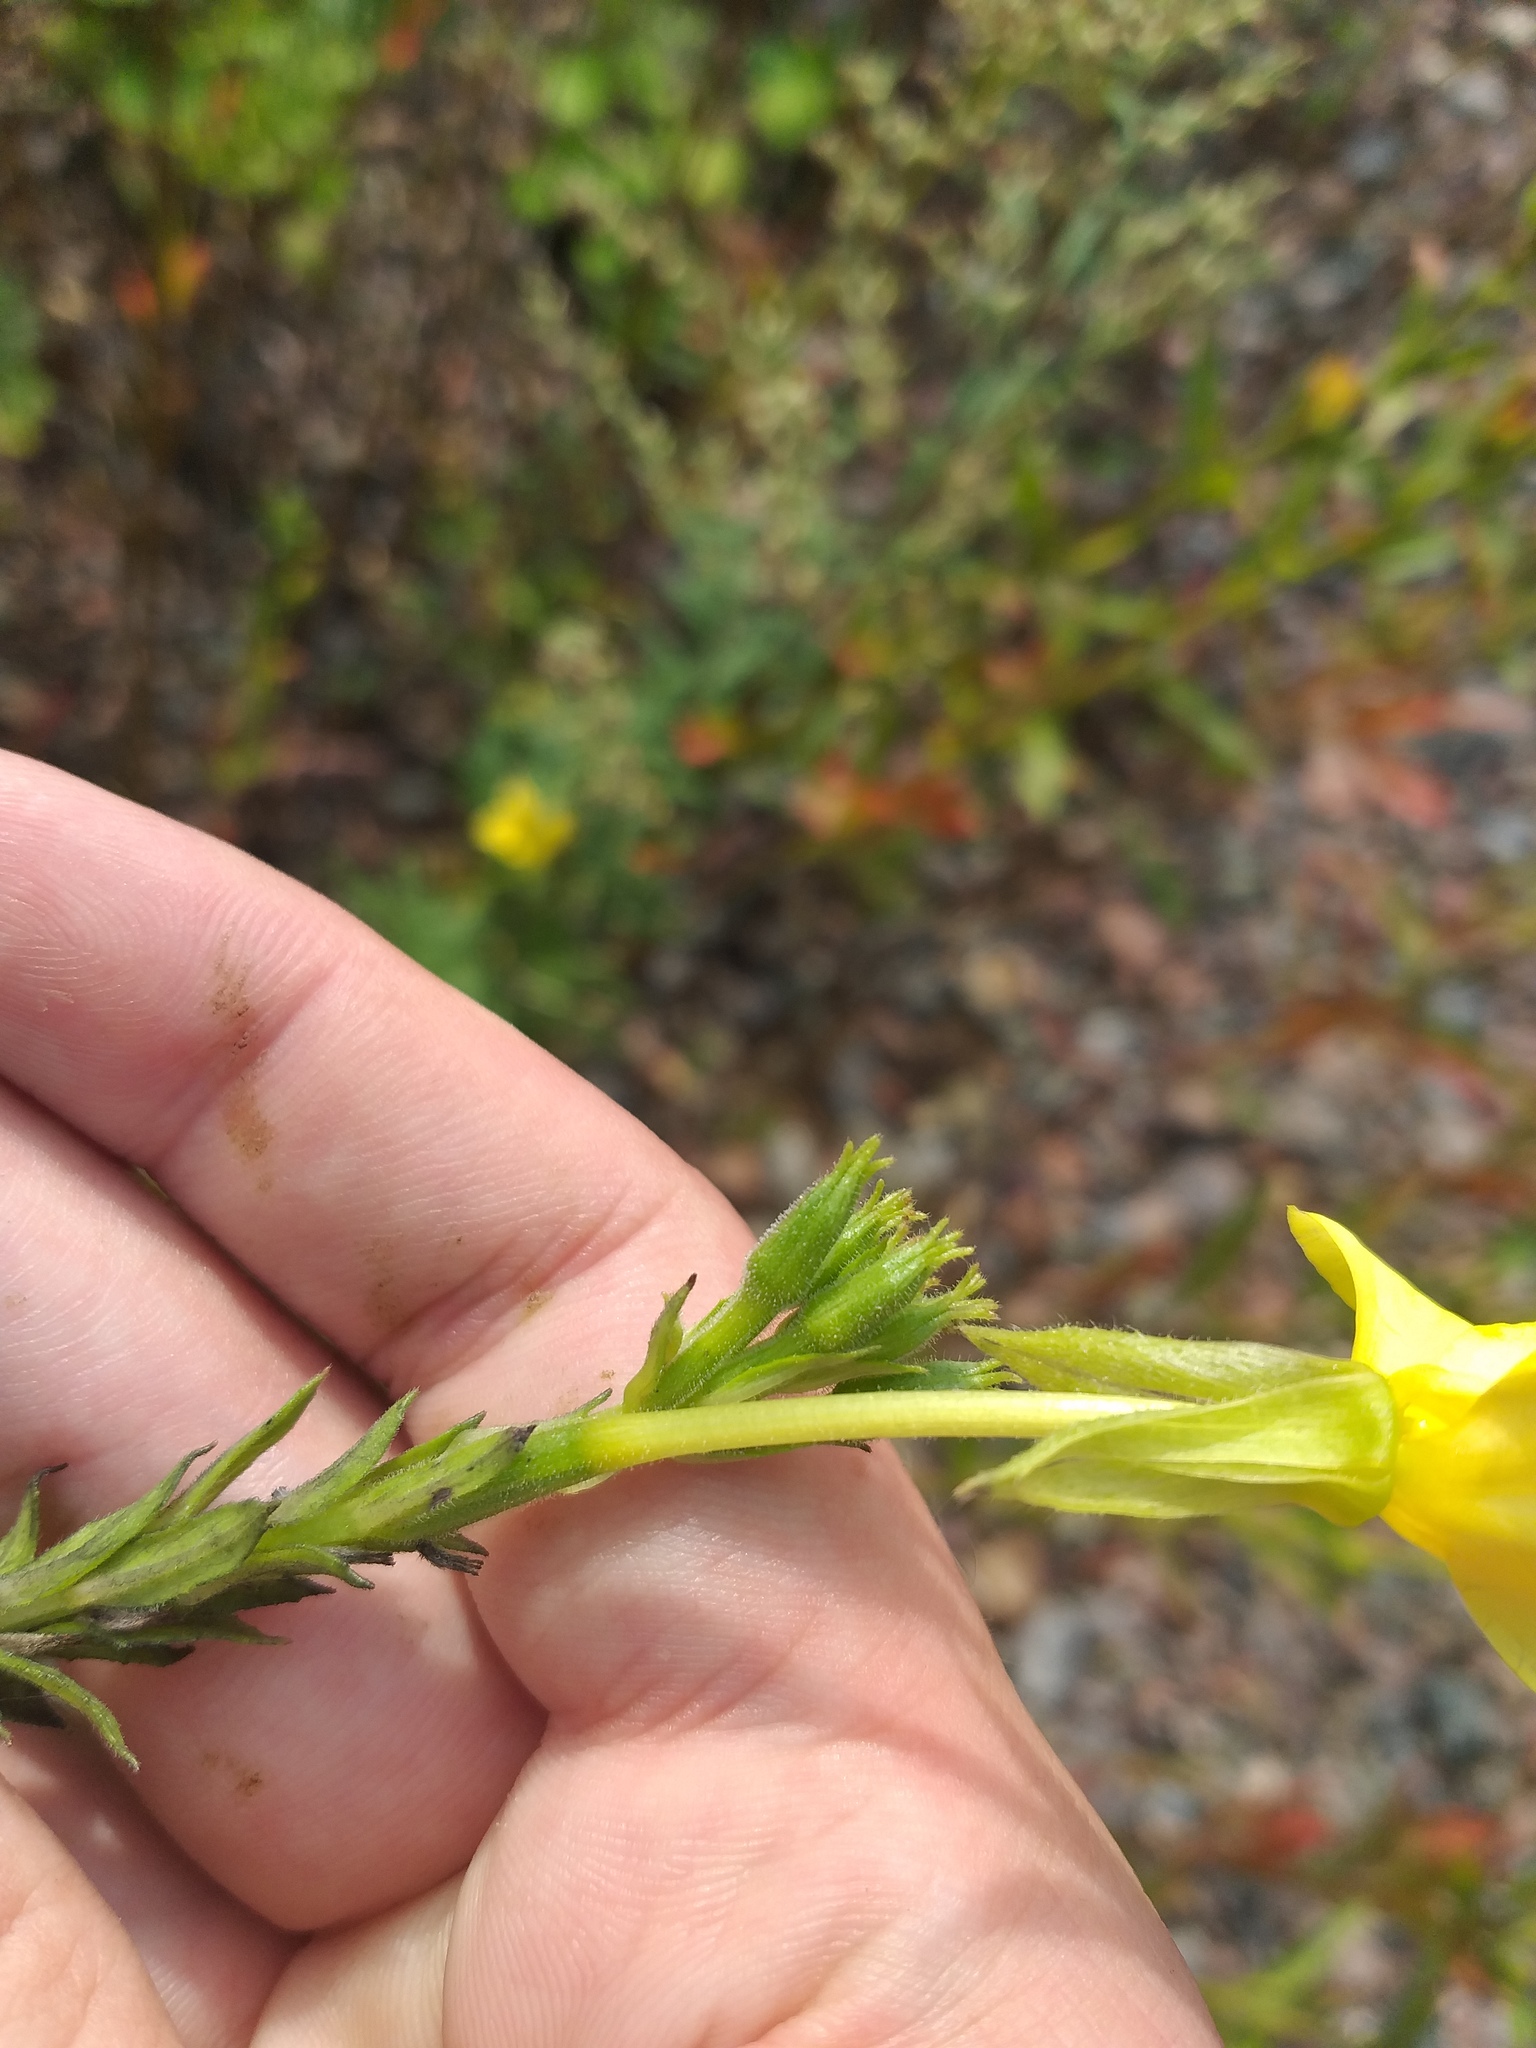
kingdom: Plantae
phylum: Tracheophyta
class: Magnoliopsida
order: Myrtales
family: Onagraceae
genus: Oenothera
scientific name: Oenothera biennis
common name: Common evening-primrose
